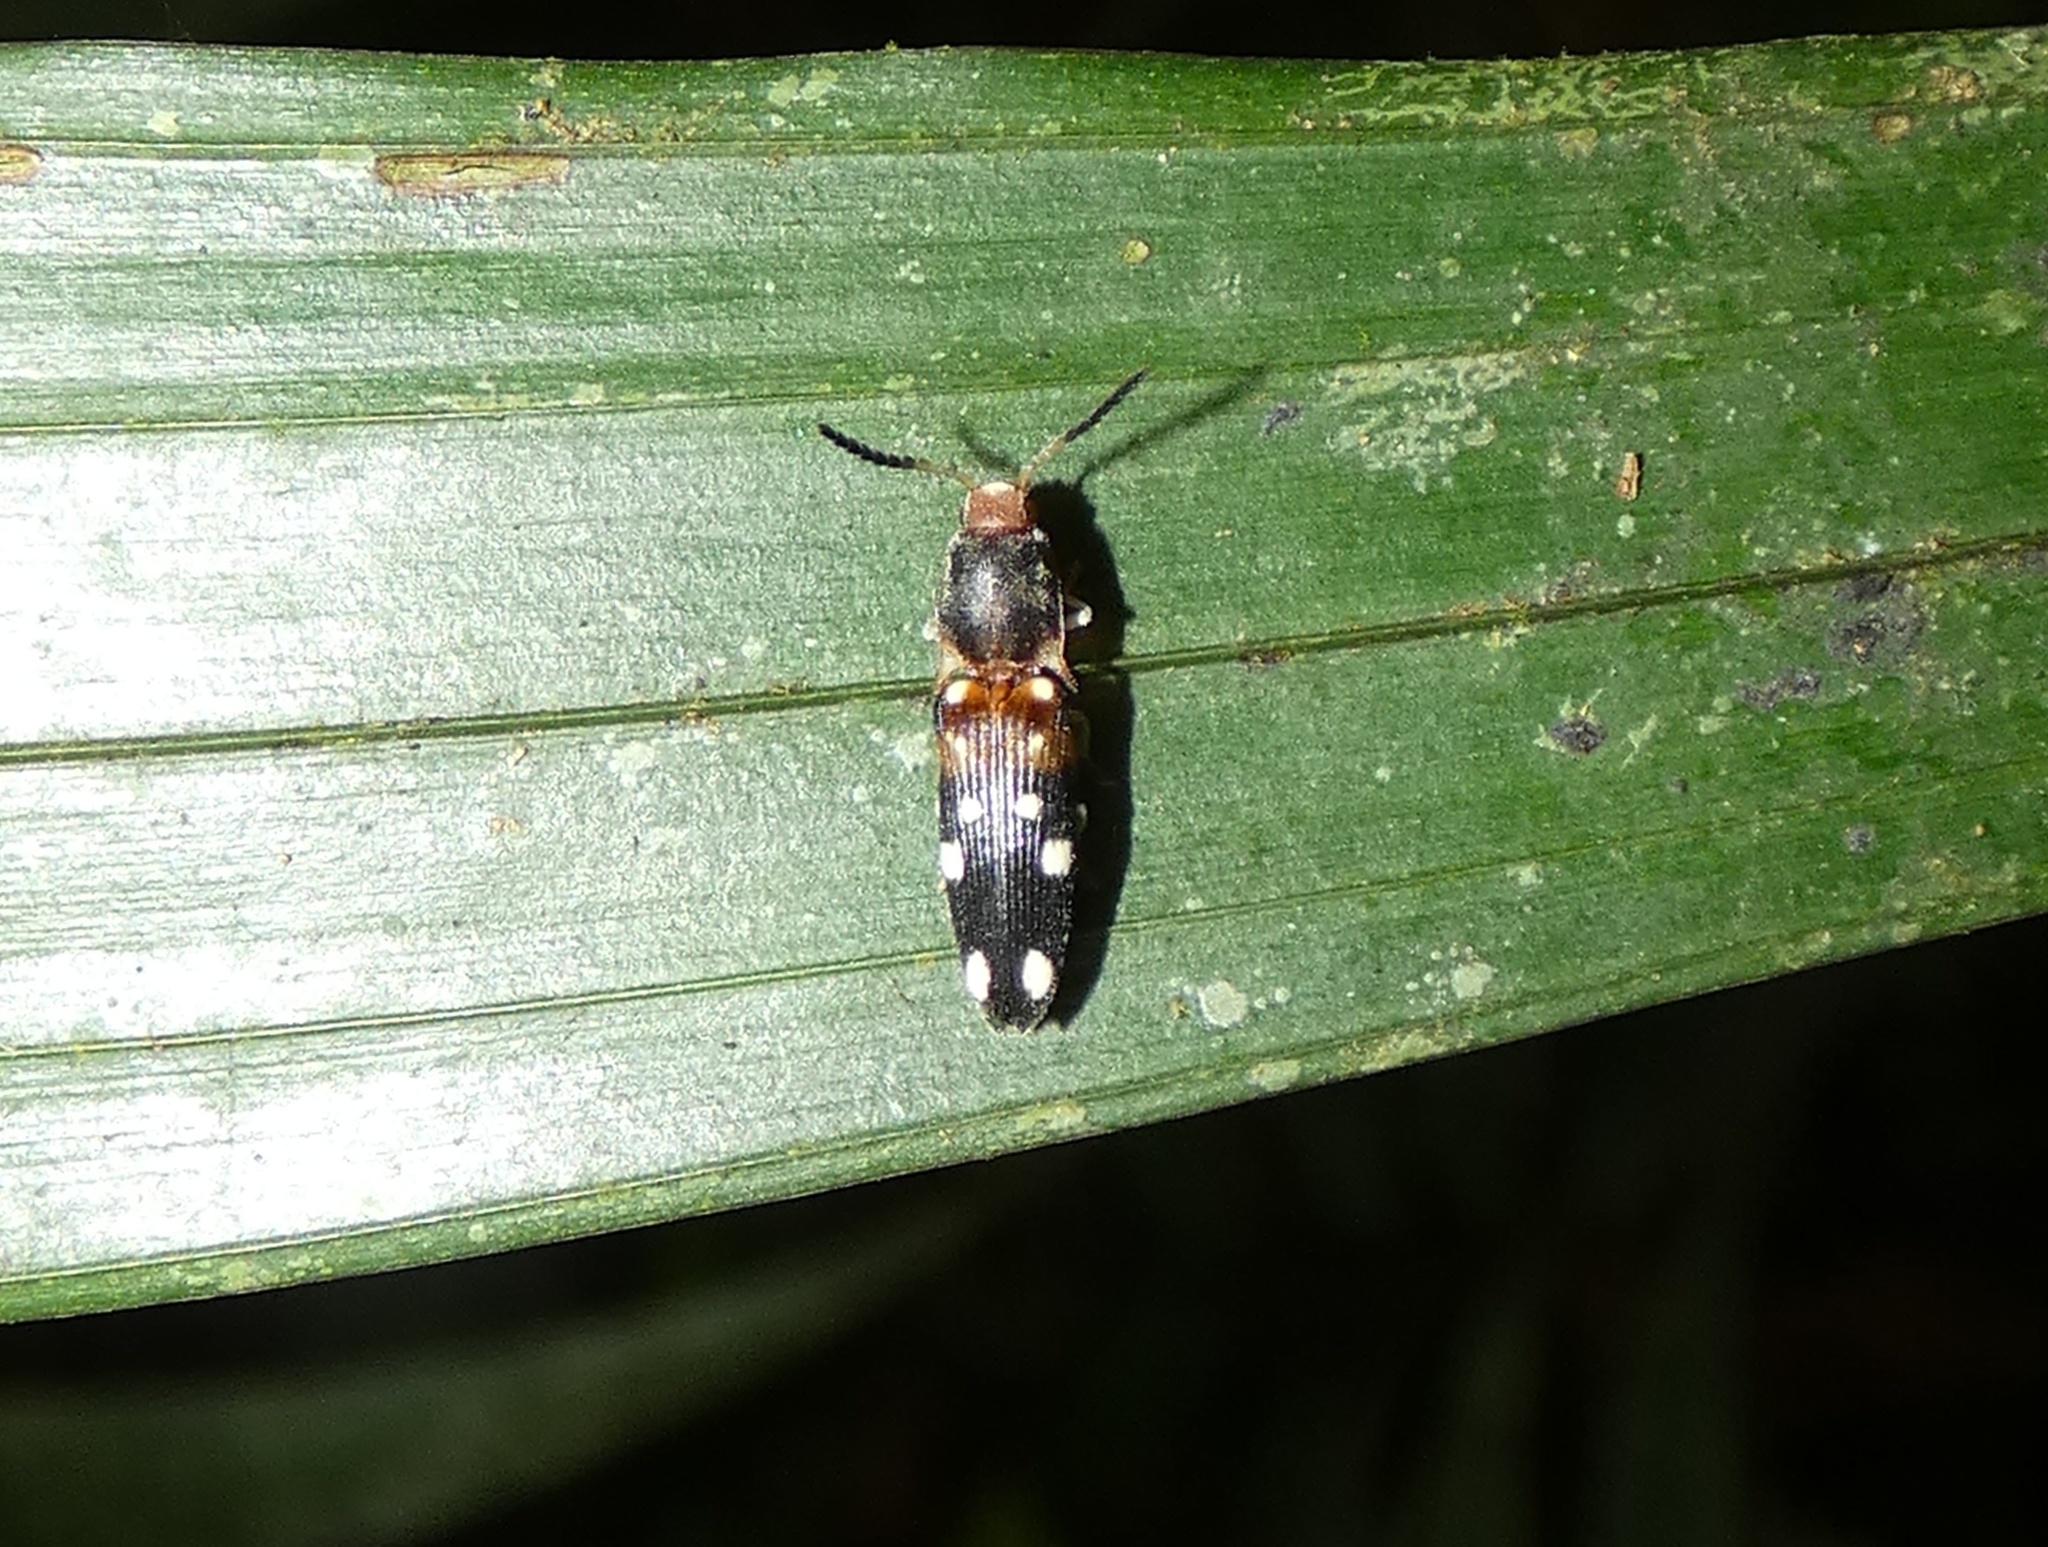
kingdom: Animalia
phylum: Arthropoda
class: Insecta
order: Coleoptera
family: Elateridae
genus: Platycrepidius
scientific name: Platycrepidius
